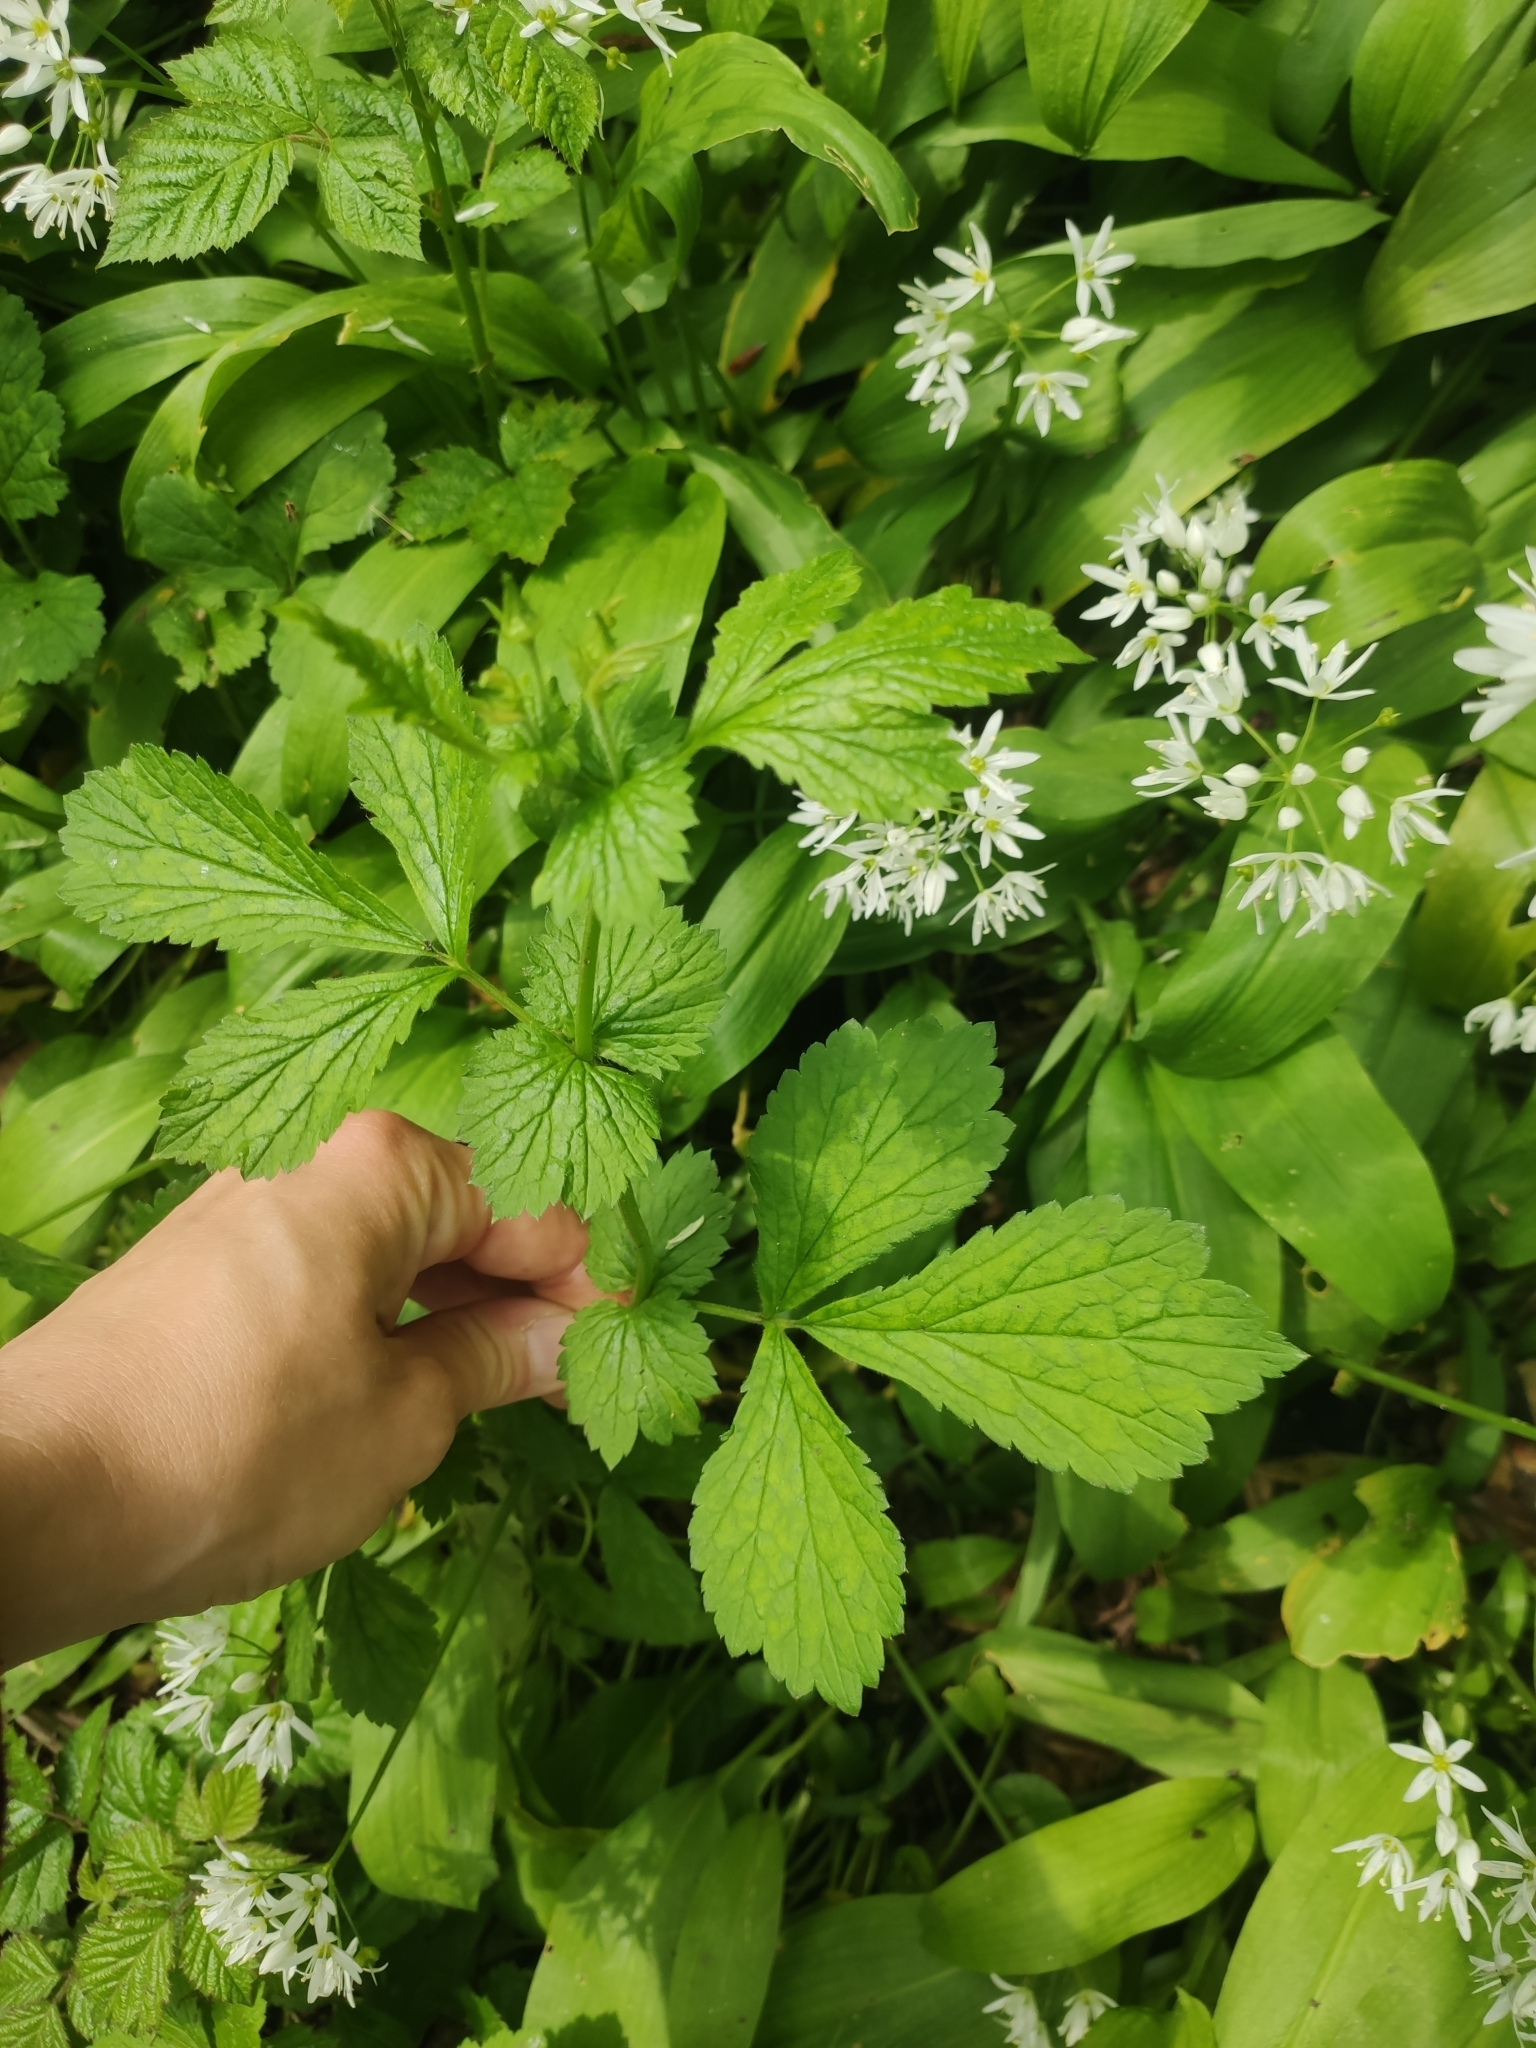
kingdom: Plantae
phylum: Tracheophyta
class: Magnoliopsida
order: Rosales
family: Rosaceae
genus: Geum
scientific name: Geum urbanum
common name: Wood avens
